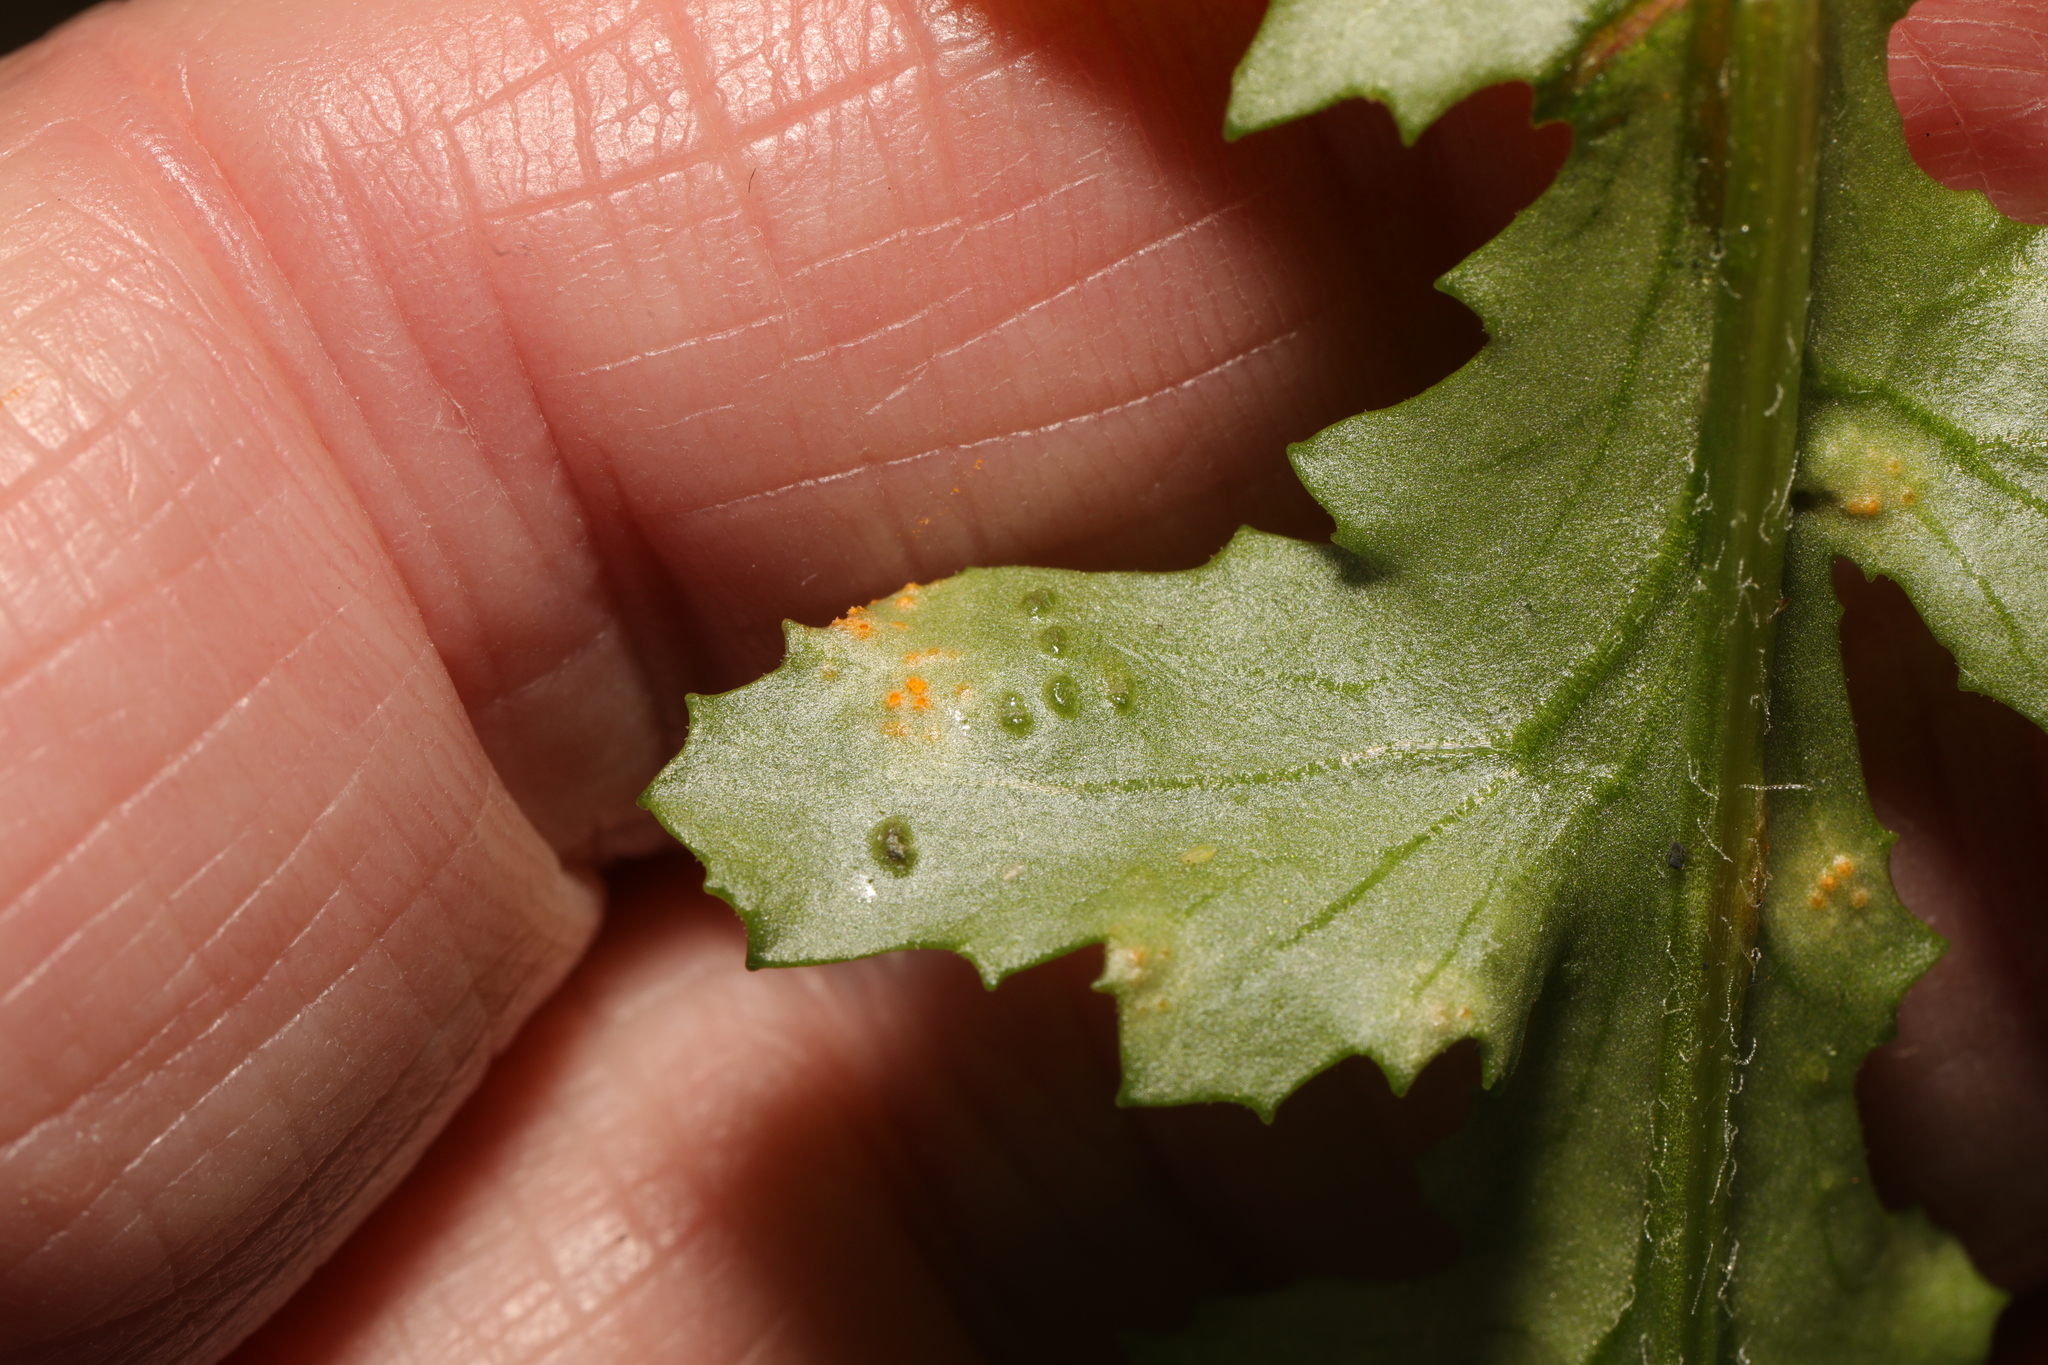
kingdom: Fungi
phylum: Basidiomycota
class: Pucciniomycetes
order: Pucciniales
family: Pucciniaceae
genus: Puccinia
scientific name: Puccinia lagenophorae
